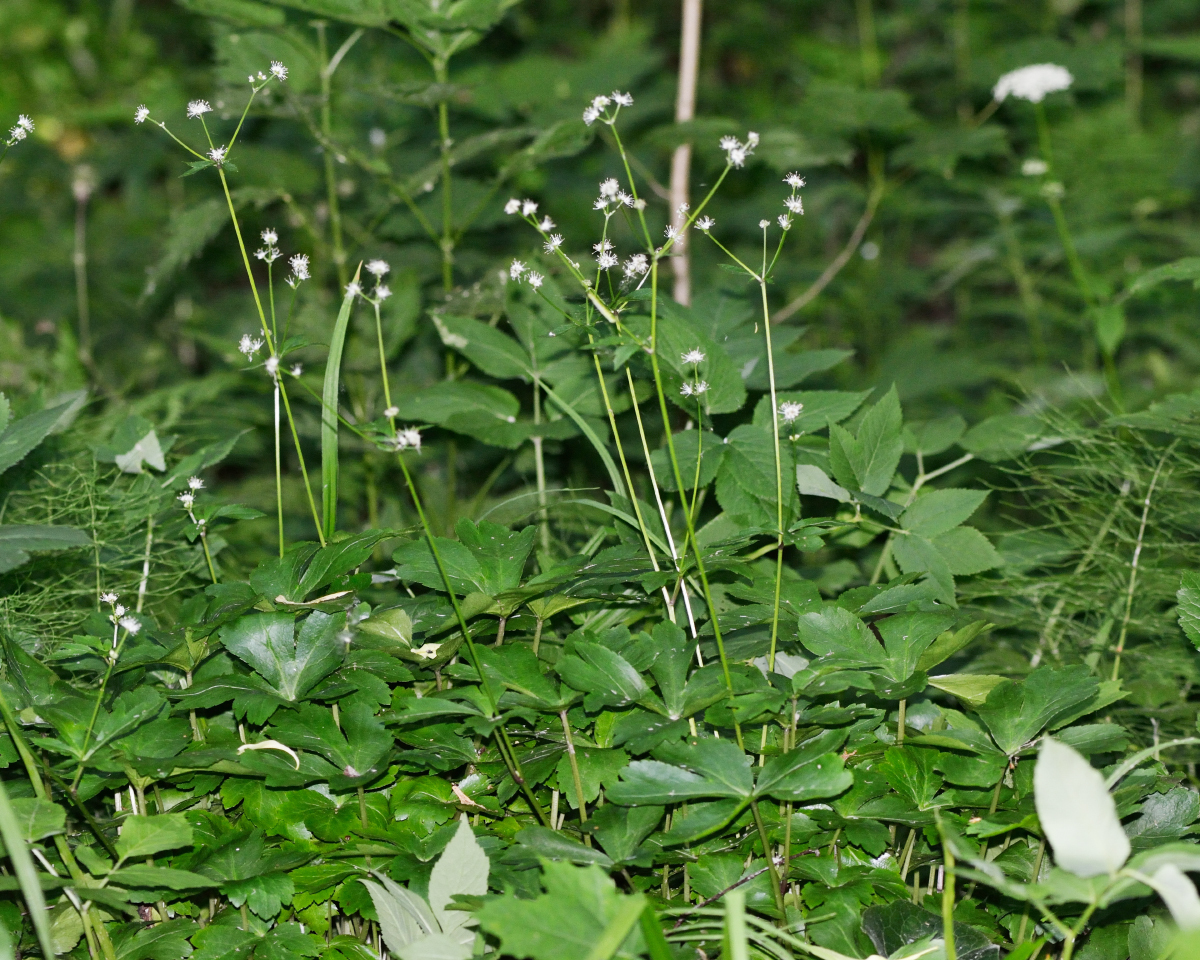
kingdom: Plantae
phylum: Tracheophyta
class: Magnoliopsida
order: Apiales
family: Apiaceae
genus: Sanicula
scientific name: Sanicula europaea
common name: Sanicle
